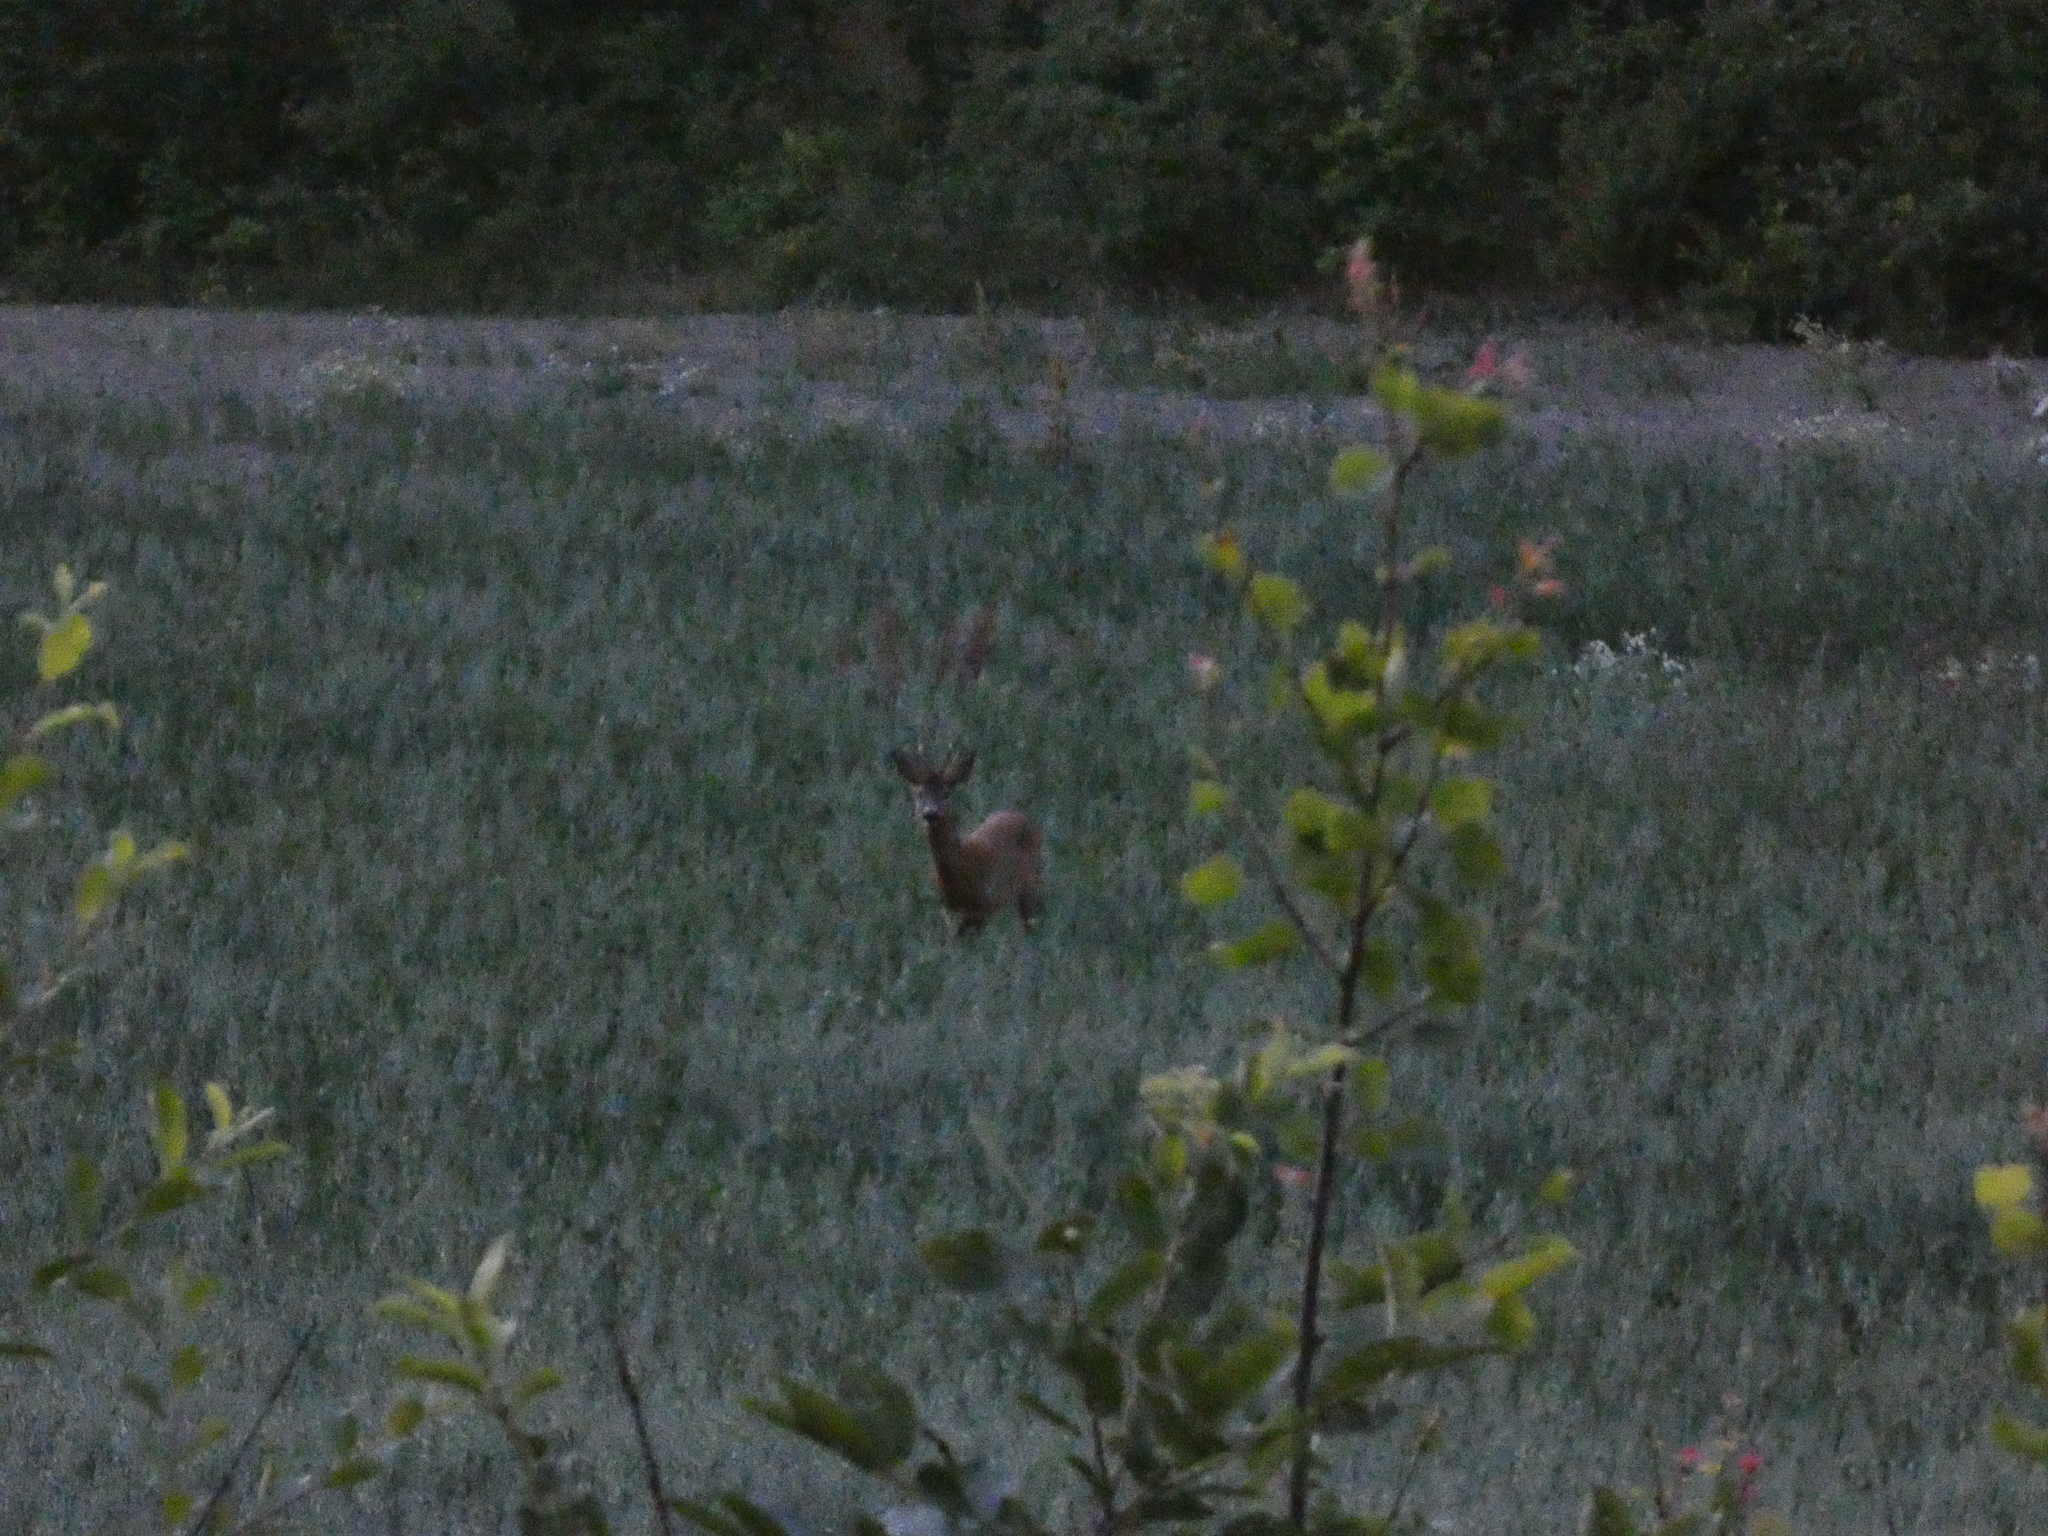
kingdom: Animalia
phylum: Chordata
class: Mammalia
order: Artiodactyla
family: Cervidae
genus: Capreolus
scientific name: Capreolus capreolus
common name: Western roe deer
